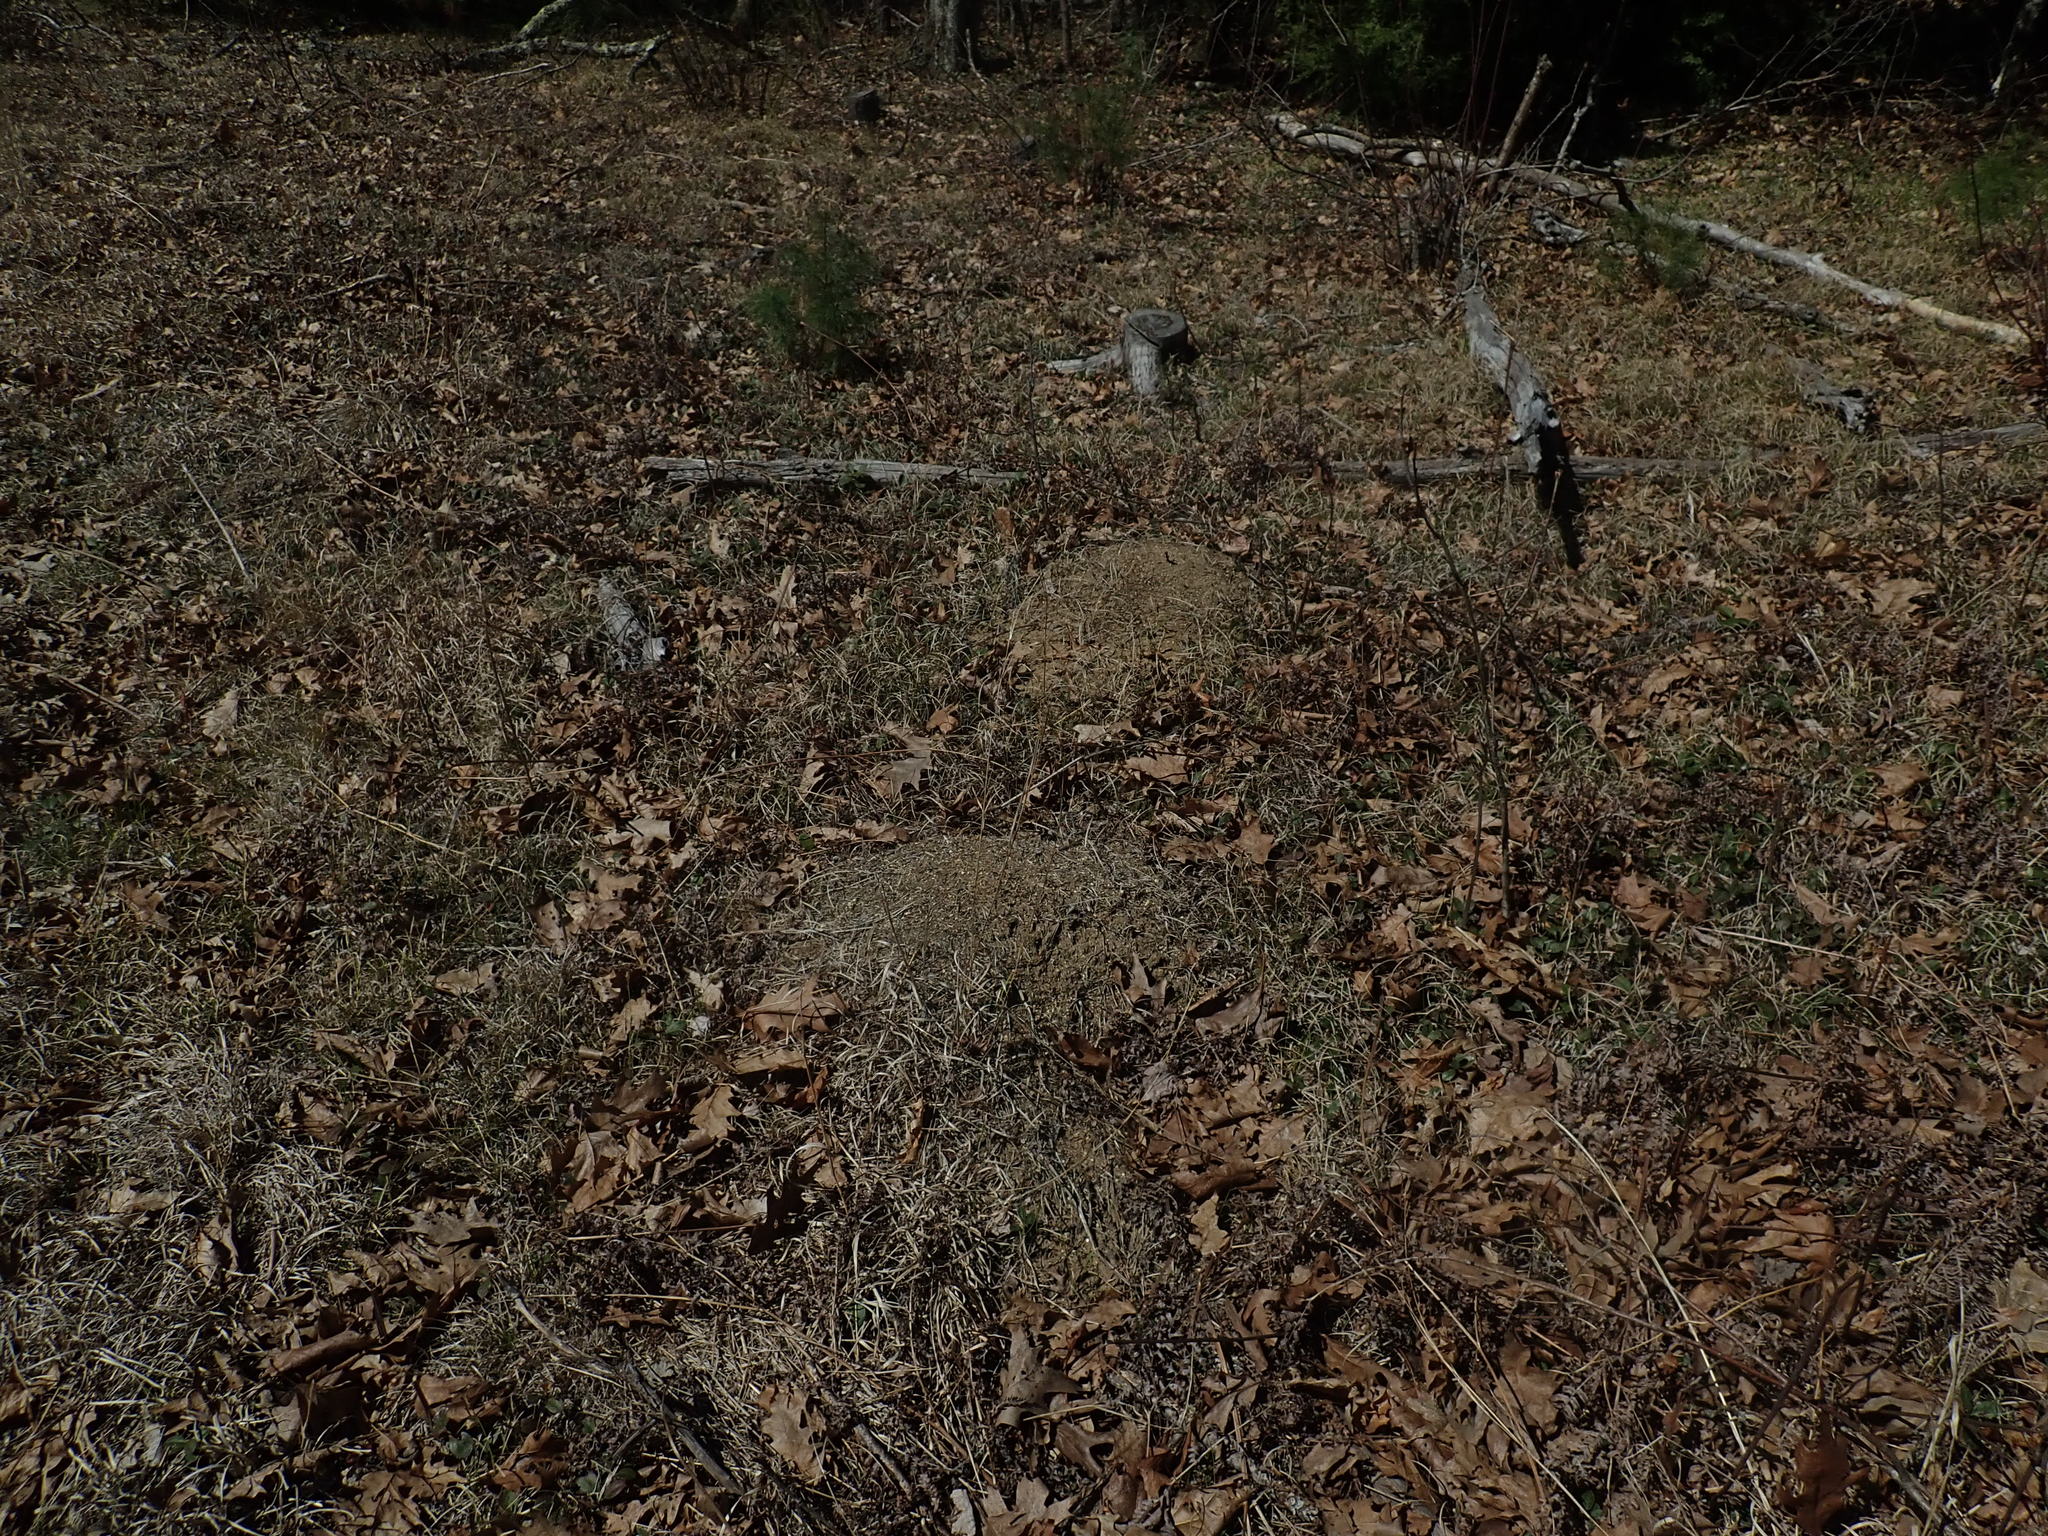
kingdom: Animalia
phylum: Arthropoda
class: Insecta
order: Hymenoptera
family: Formicidae
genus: Formica
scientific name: Formica exsectoides
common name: Allegheny mound ant
